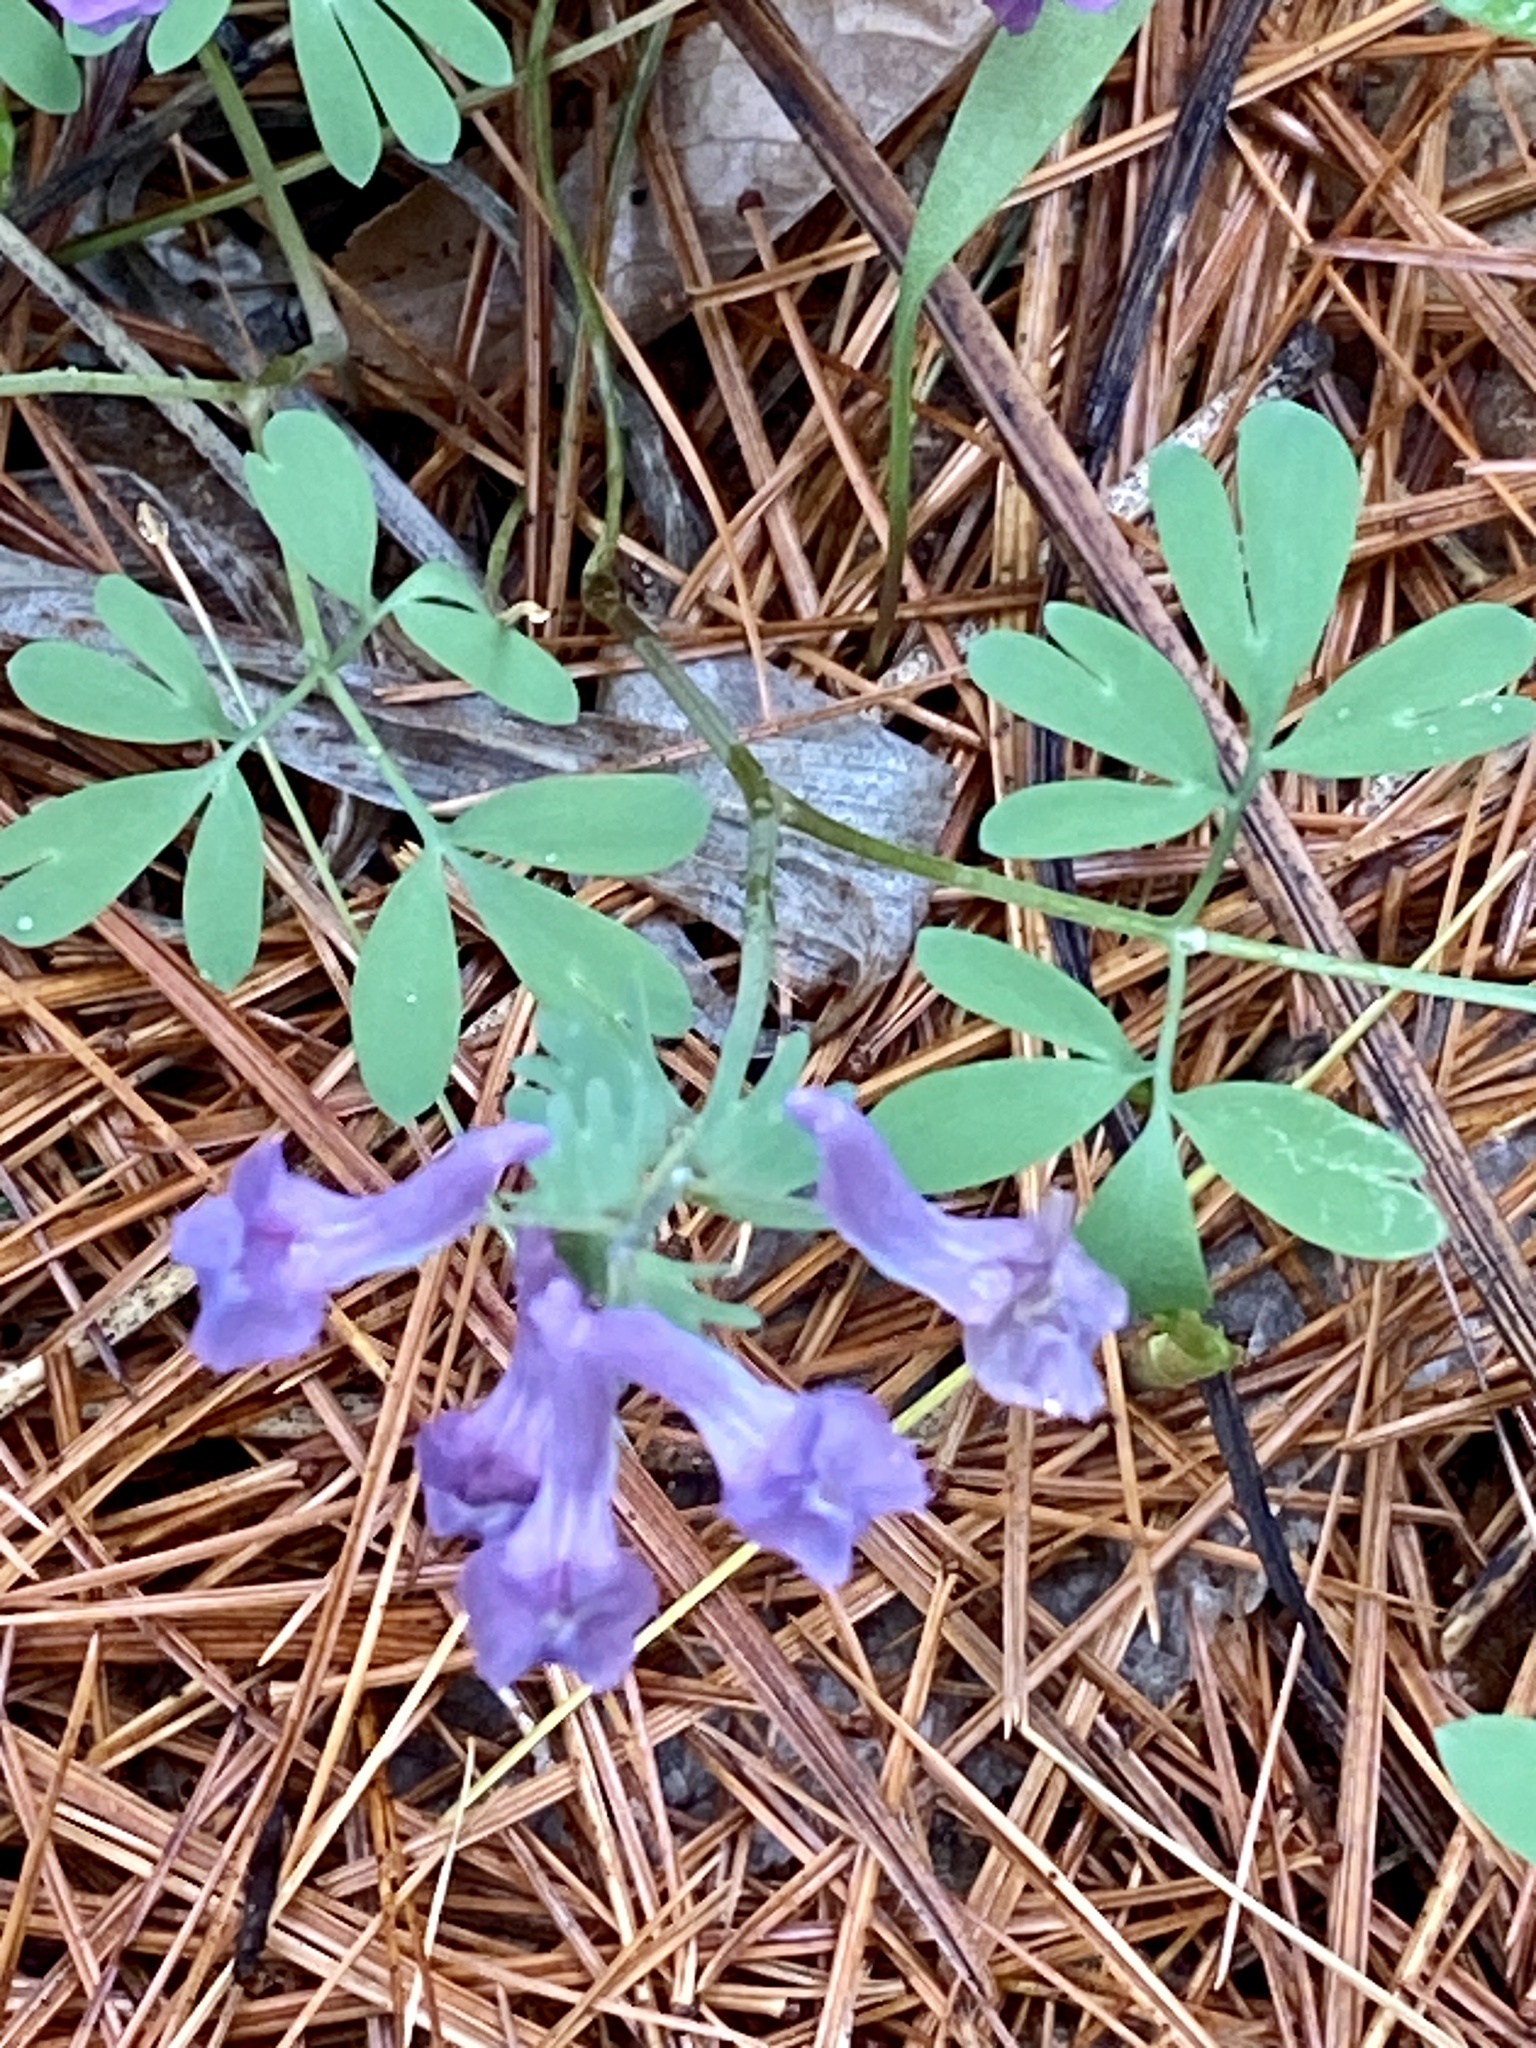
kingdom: Plantae
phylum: Tracheophyta
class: Magnoliopsida
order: Ranunculales
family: Papaveraceae
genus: Corydalis
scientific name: Corydalis solida
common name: Bird-in-a-bush
